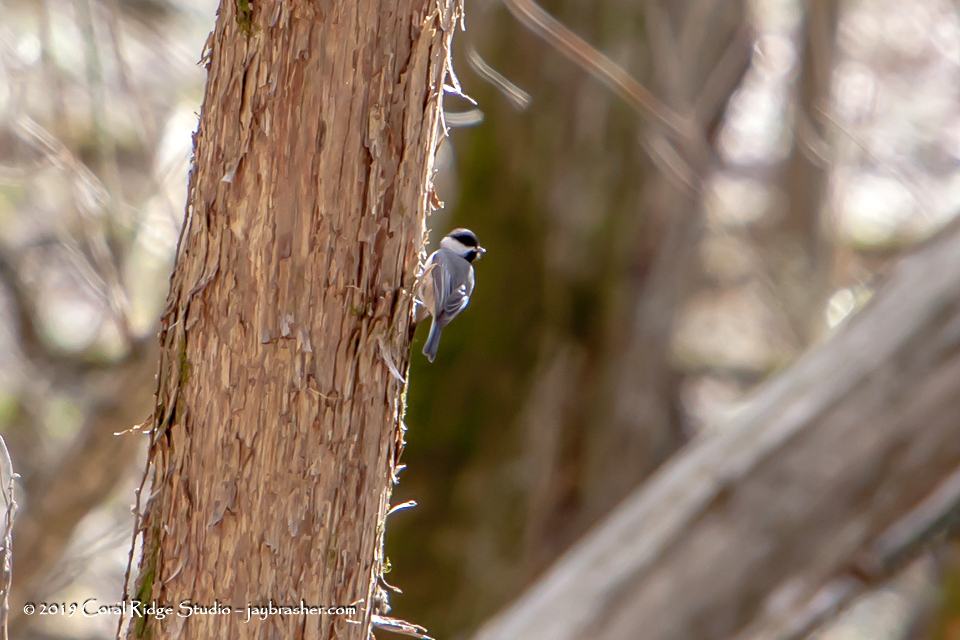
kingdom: Animalia
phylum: Chordata
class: Aves
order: Passeriformes
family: Paridae
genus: Poecile
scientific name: Poecile carolinensis
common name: Carolina chickadee
